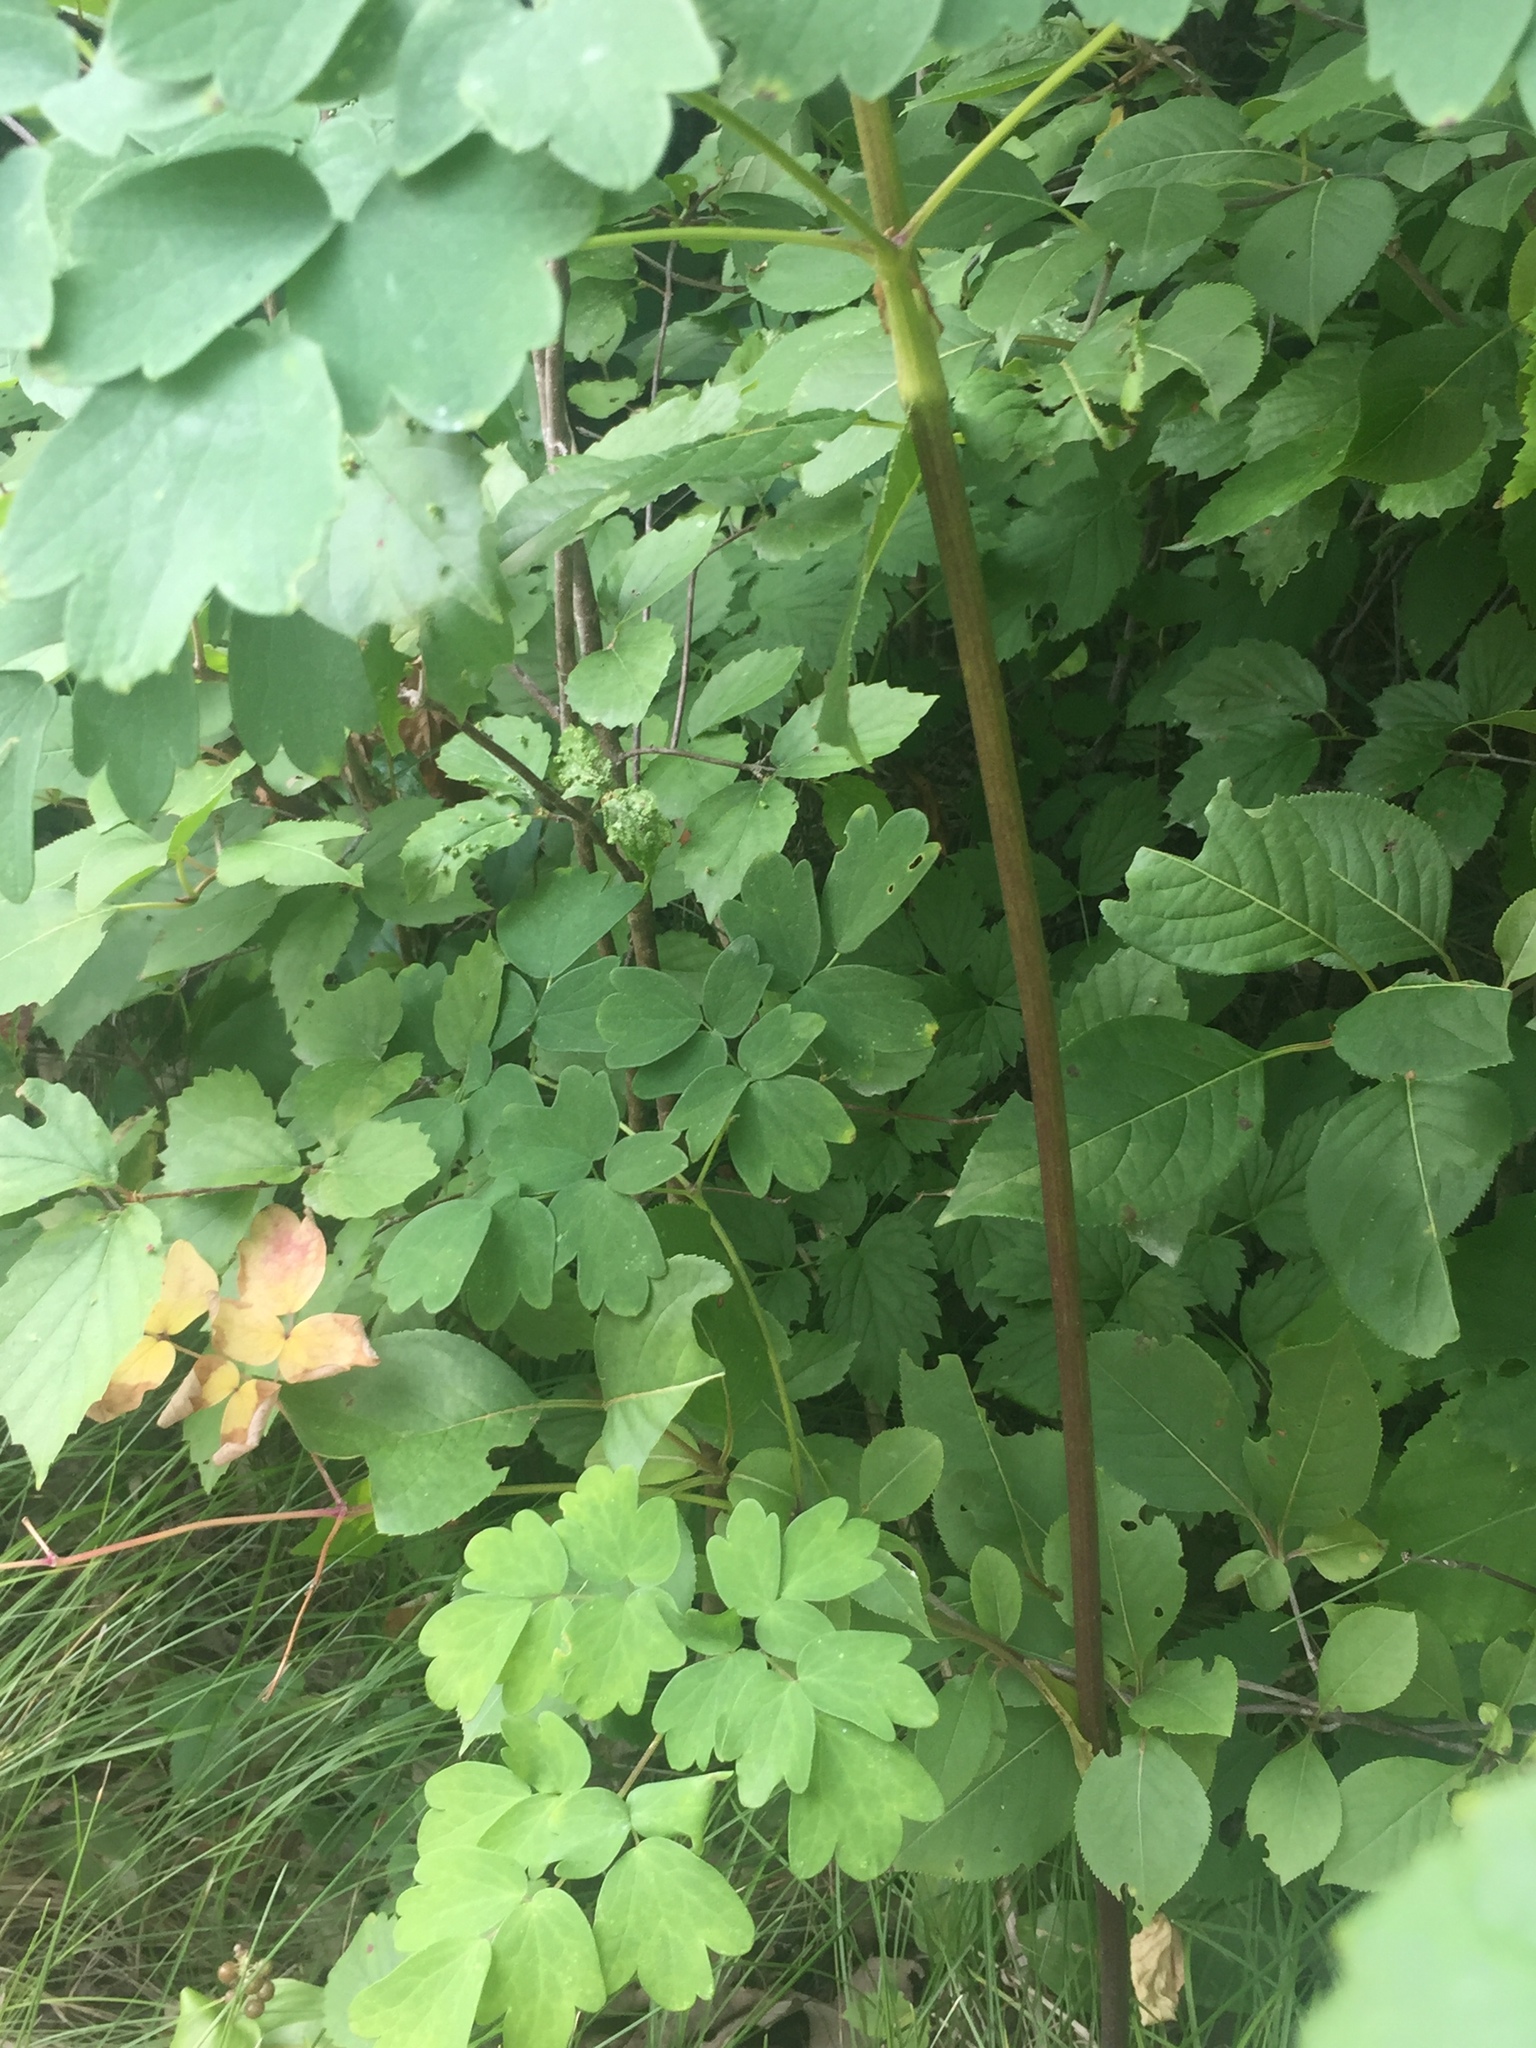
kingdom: Plantae
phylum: Tracheophyta
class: Magnoliopsida
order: Ranunculales
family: Ranunculaceae
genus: Thalictrum
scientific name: Thalictrum dasycarpum
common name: Purple meadow-rue
